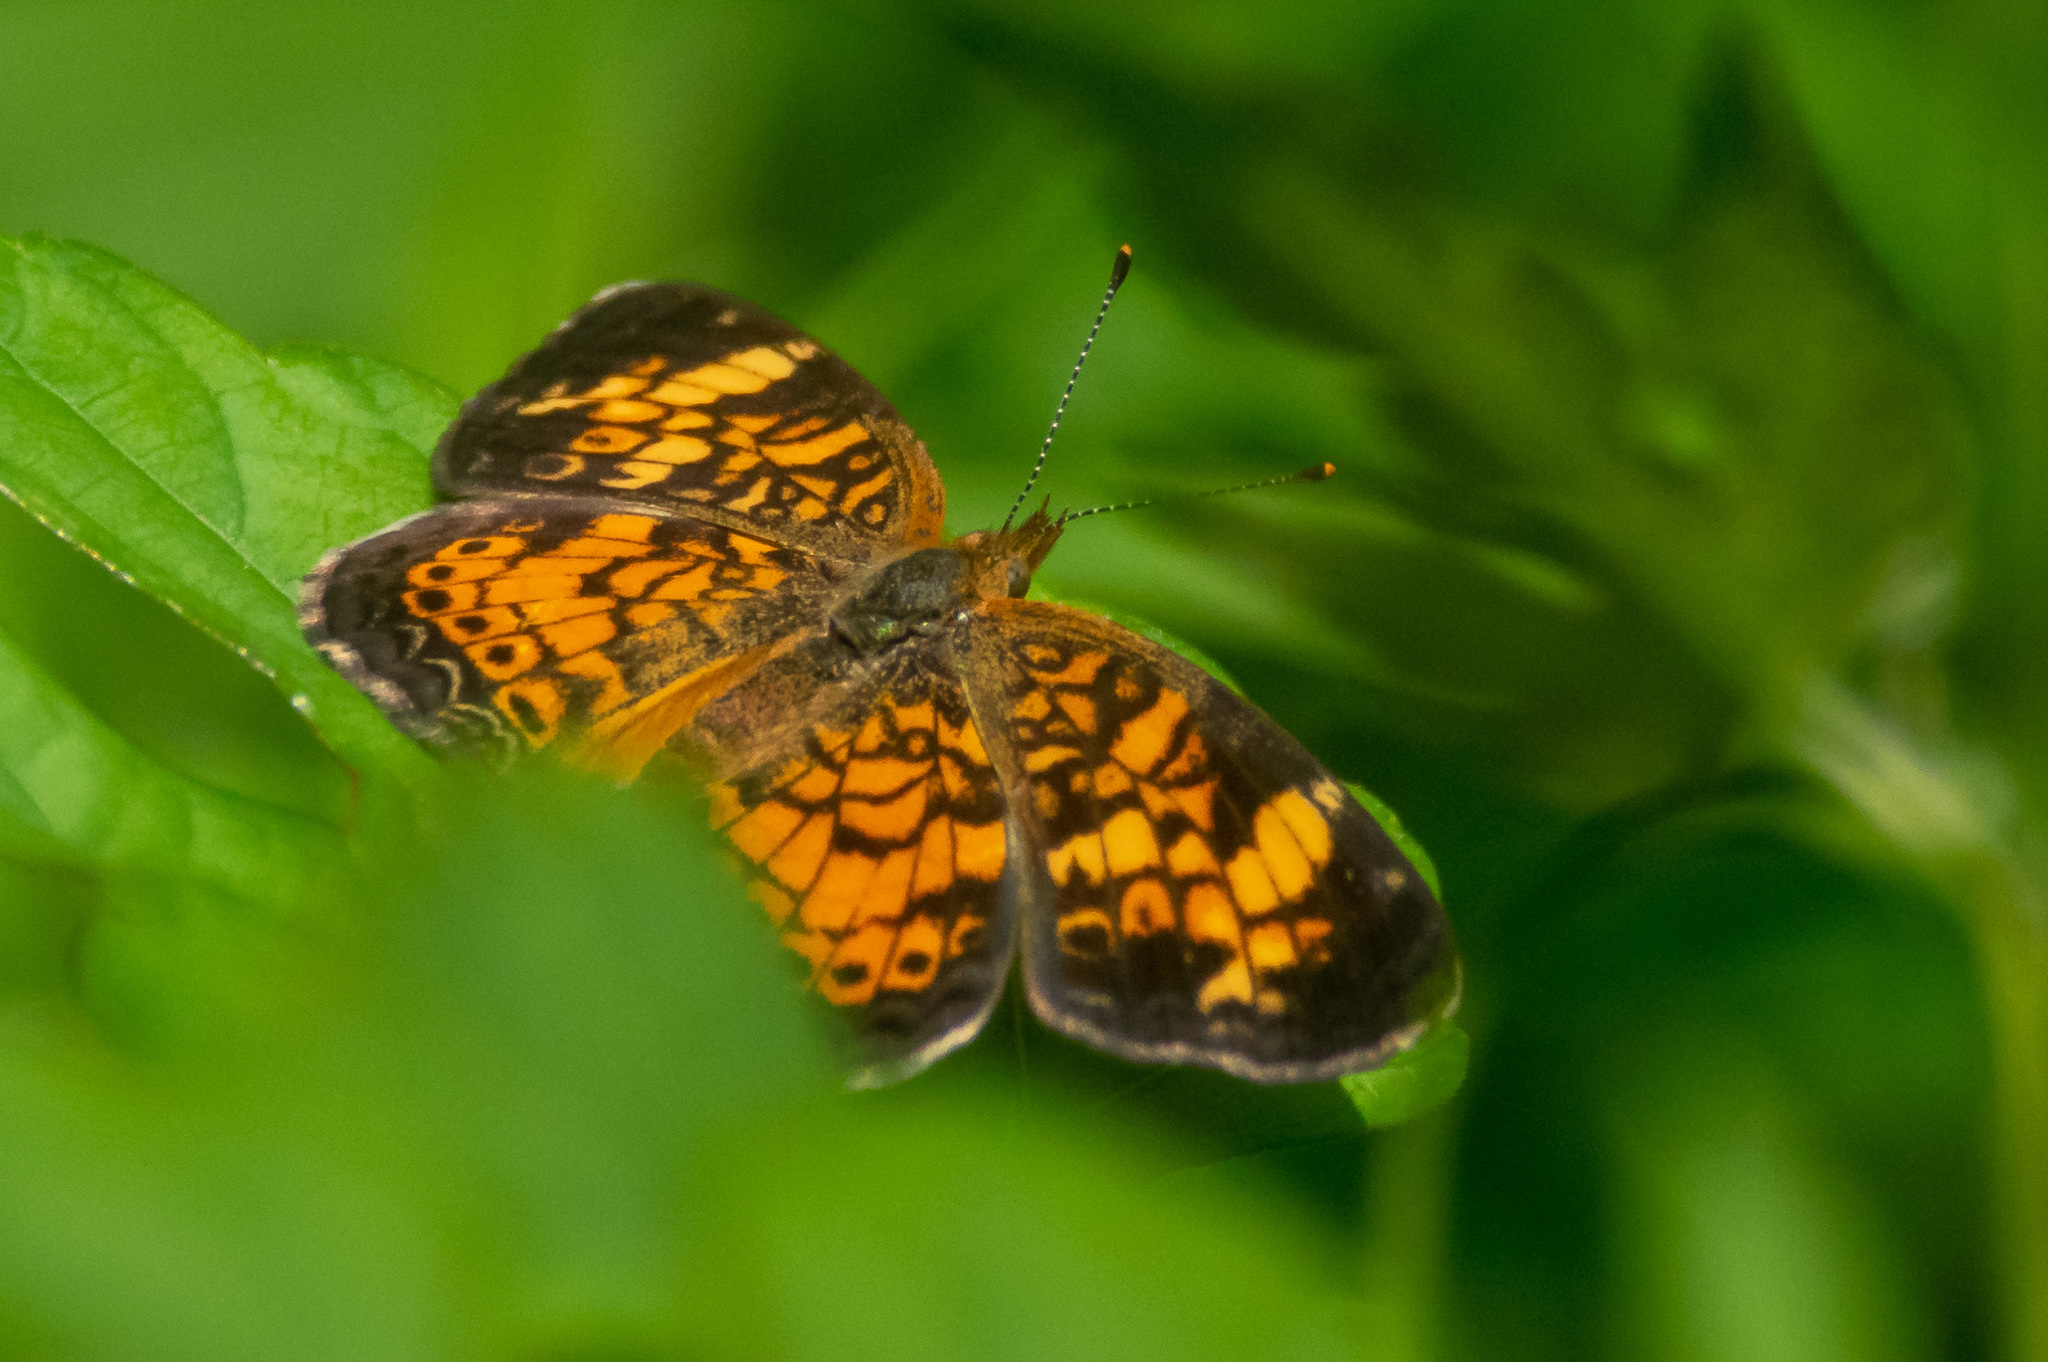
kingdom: Animalia
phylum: Arthropoda
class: Insecta
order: Lepidoptera
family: Nymphalidae
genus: Phyciodes
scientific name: Phyciodes tharos
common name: Pearl crescent
